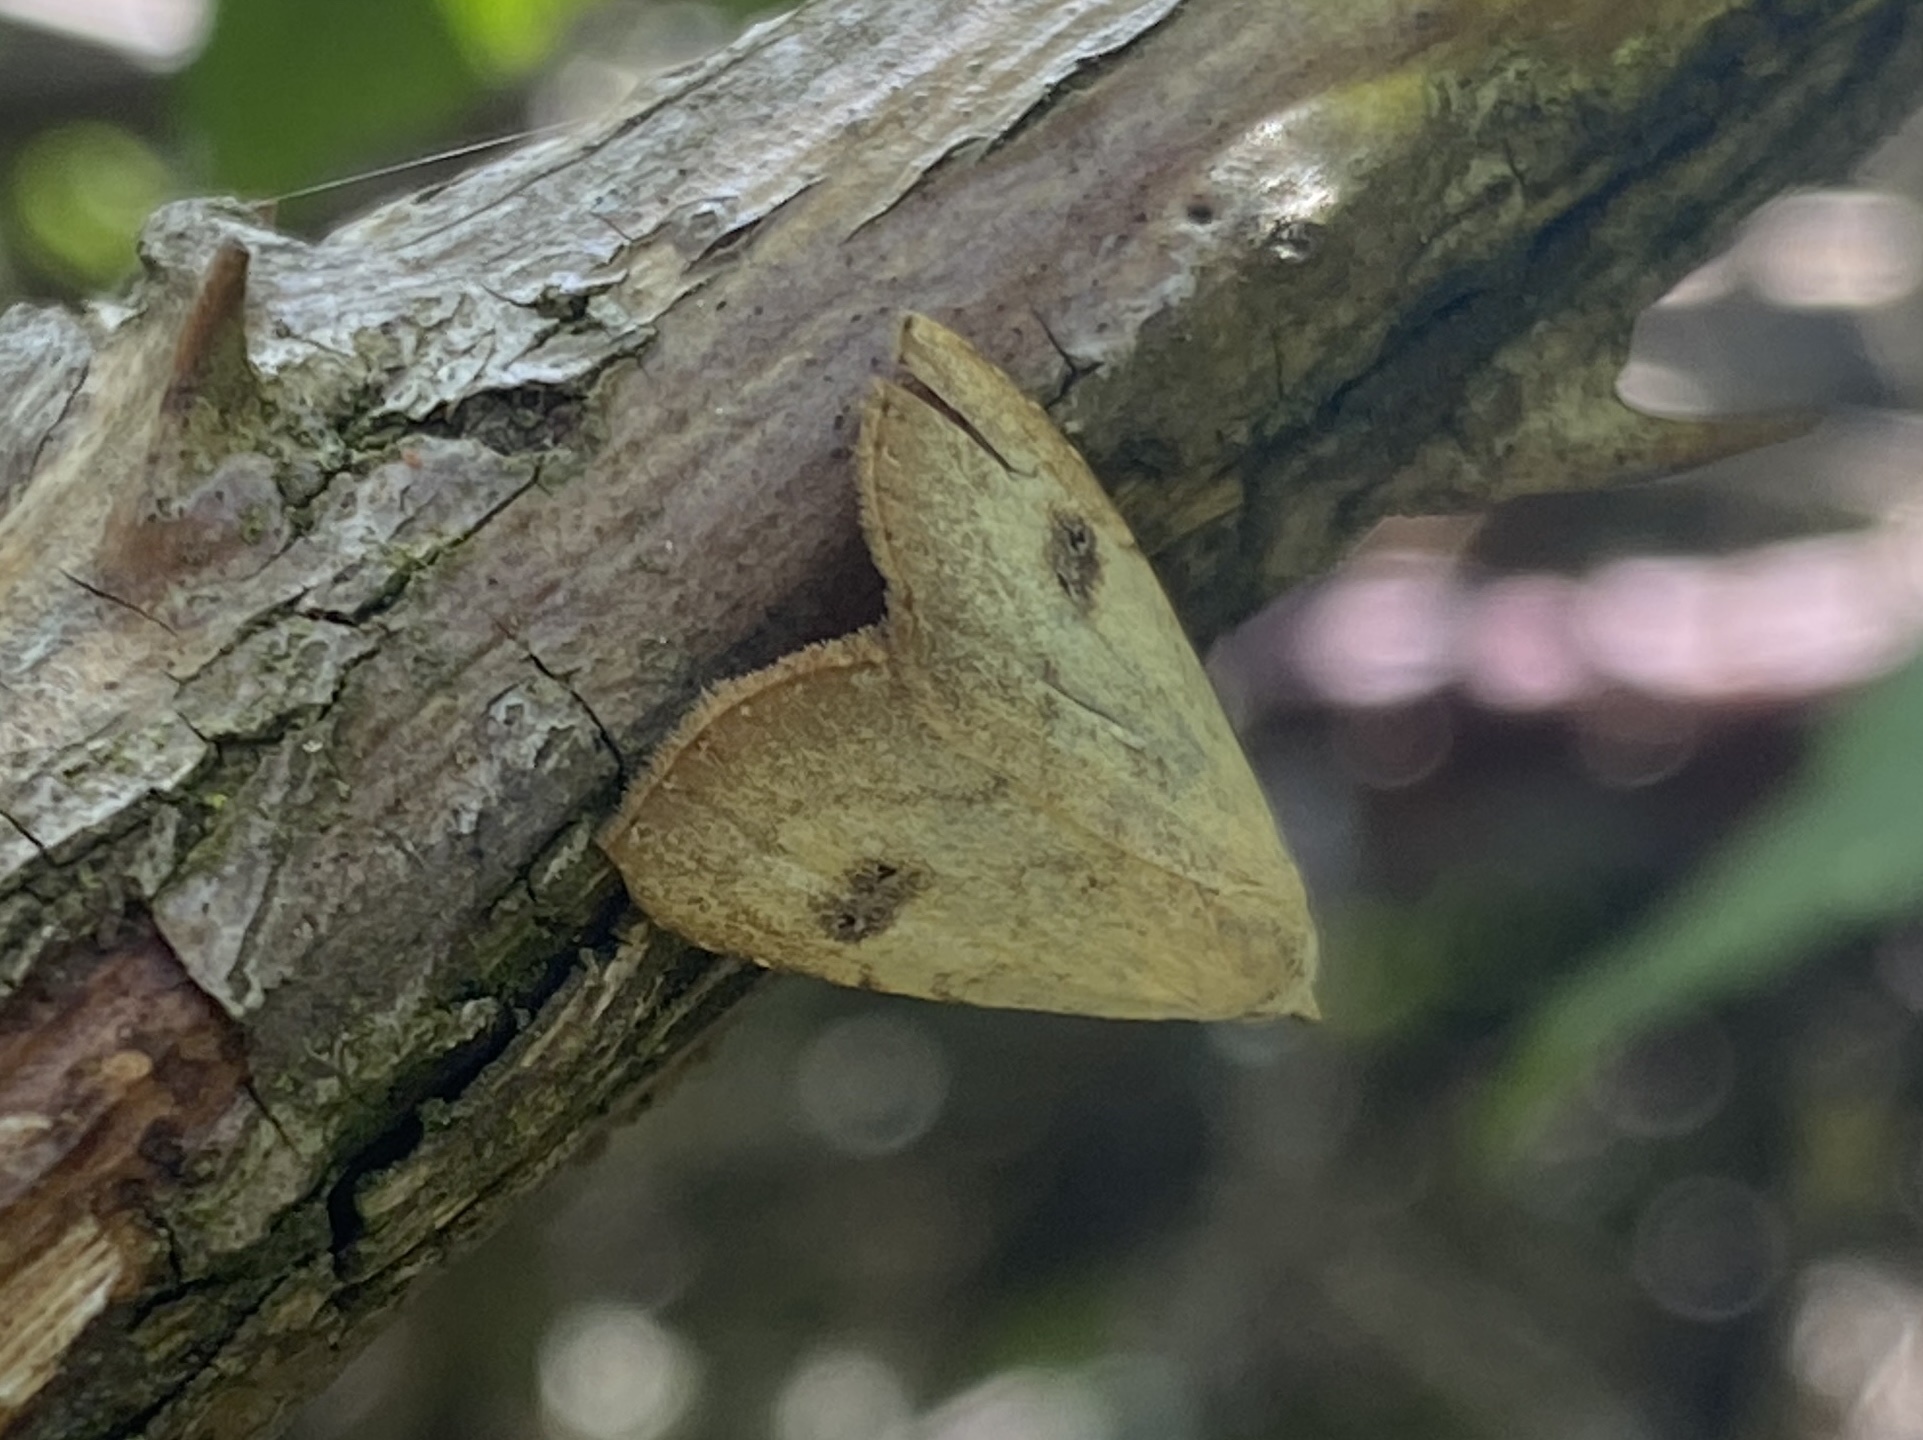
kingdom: Animalia
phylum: Arthropoda
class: Insecta
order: Lepidoptera
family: Erebidae
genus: Rivula
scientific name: Rivula sericealis
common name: Straw dot
